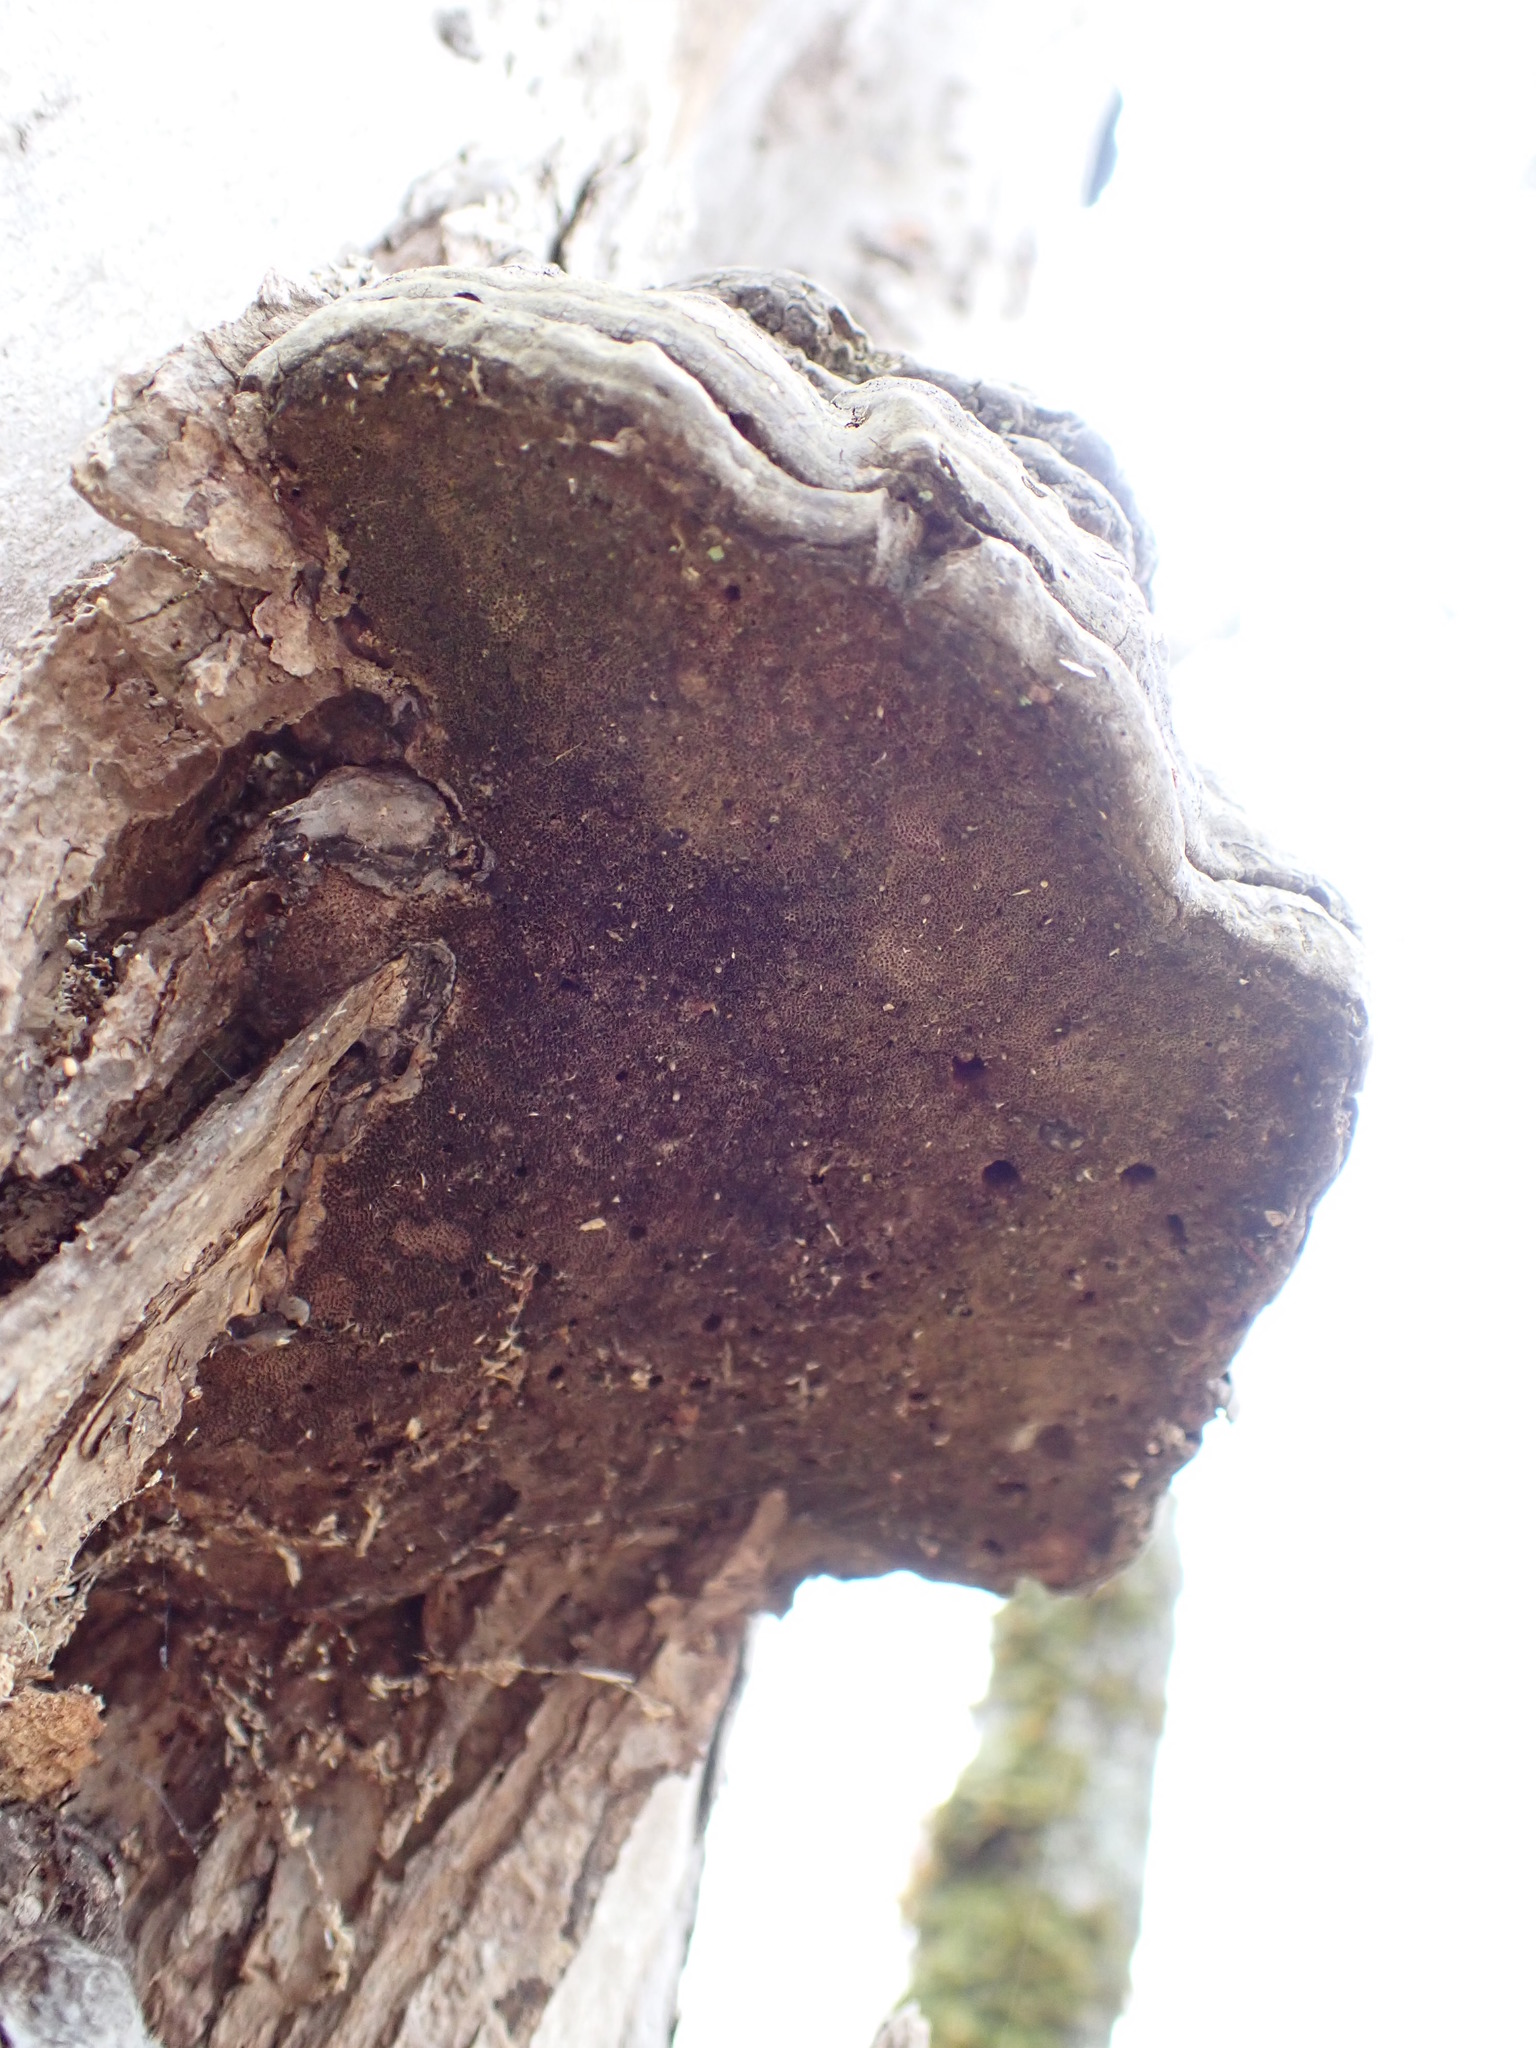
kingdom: Fungi
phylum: Basidiomycota
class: Agaricomycetes
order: Polyporales
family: Polyporaceae
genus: Fomes
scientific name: Fomes fomentarius
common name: Hoof fungus
